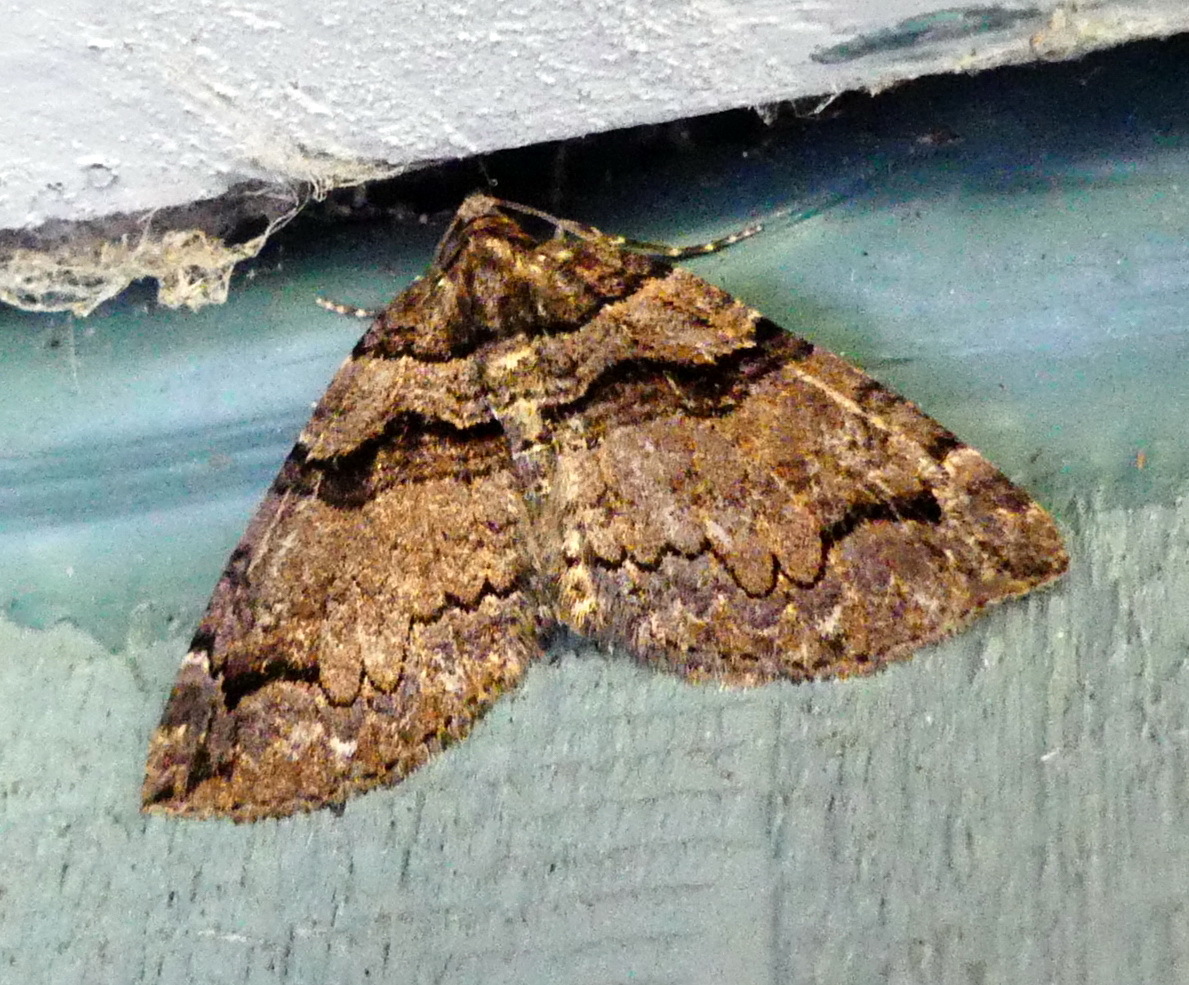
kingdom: Animalia
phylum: Arthropoda
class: Insecta
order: Lepidoptera
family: Geometridae
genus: Anticlea
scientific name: Anticlea vasiliata
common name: Variable carpet
